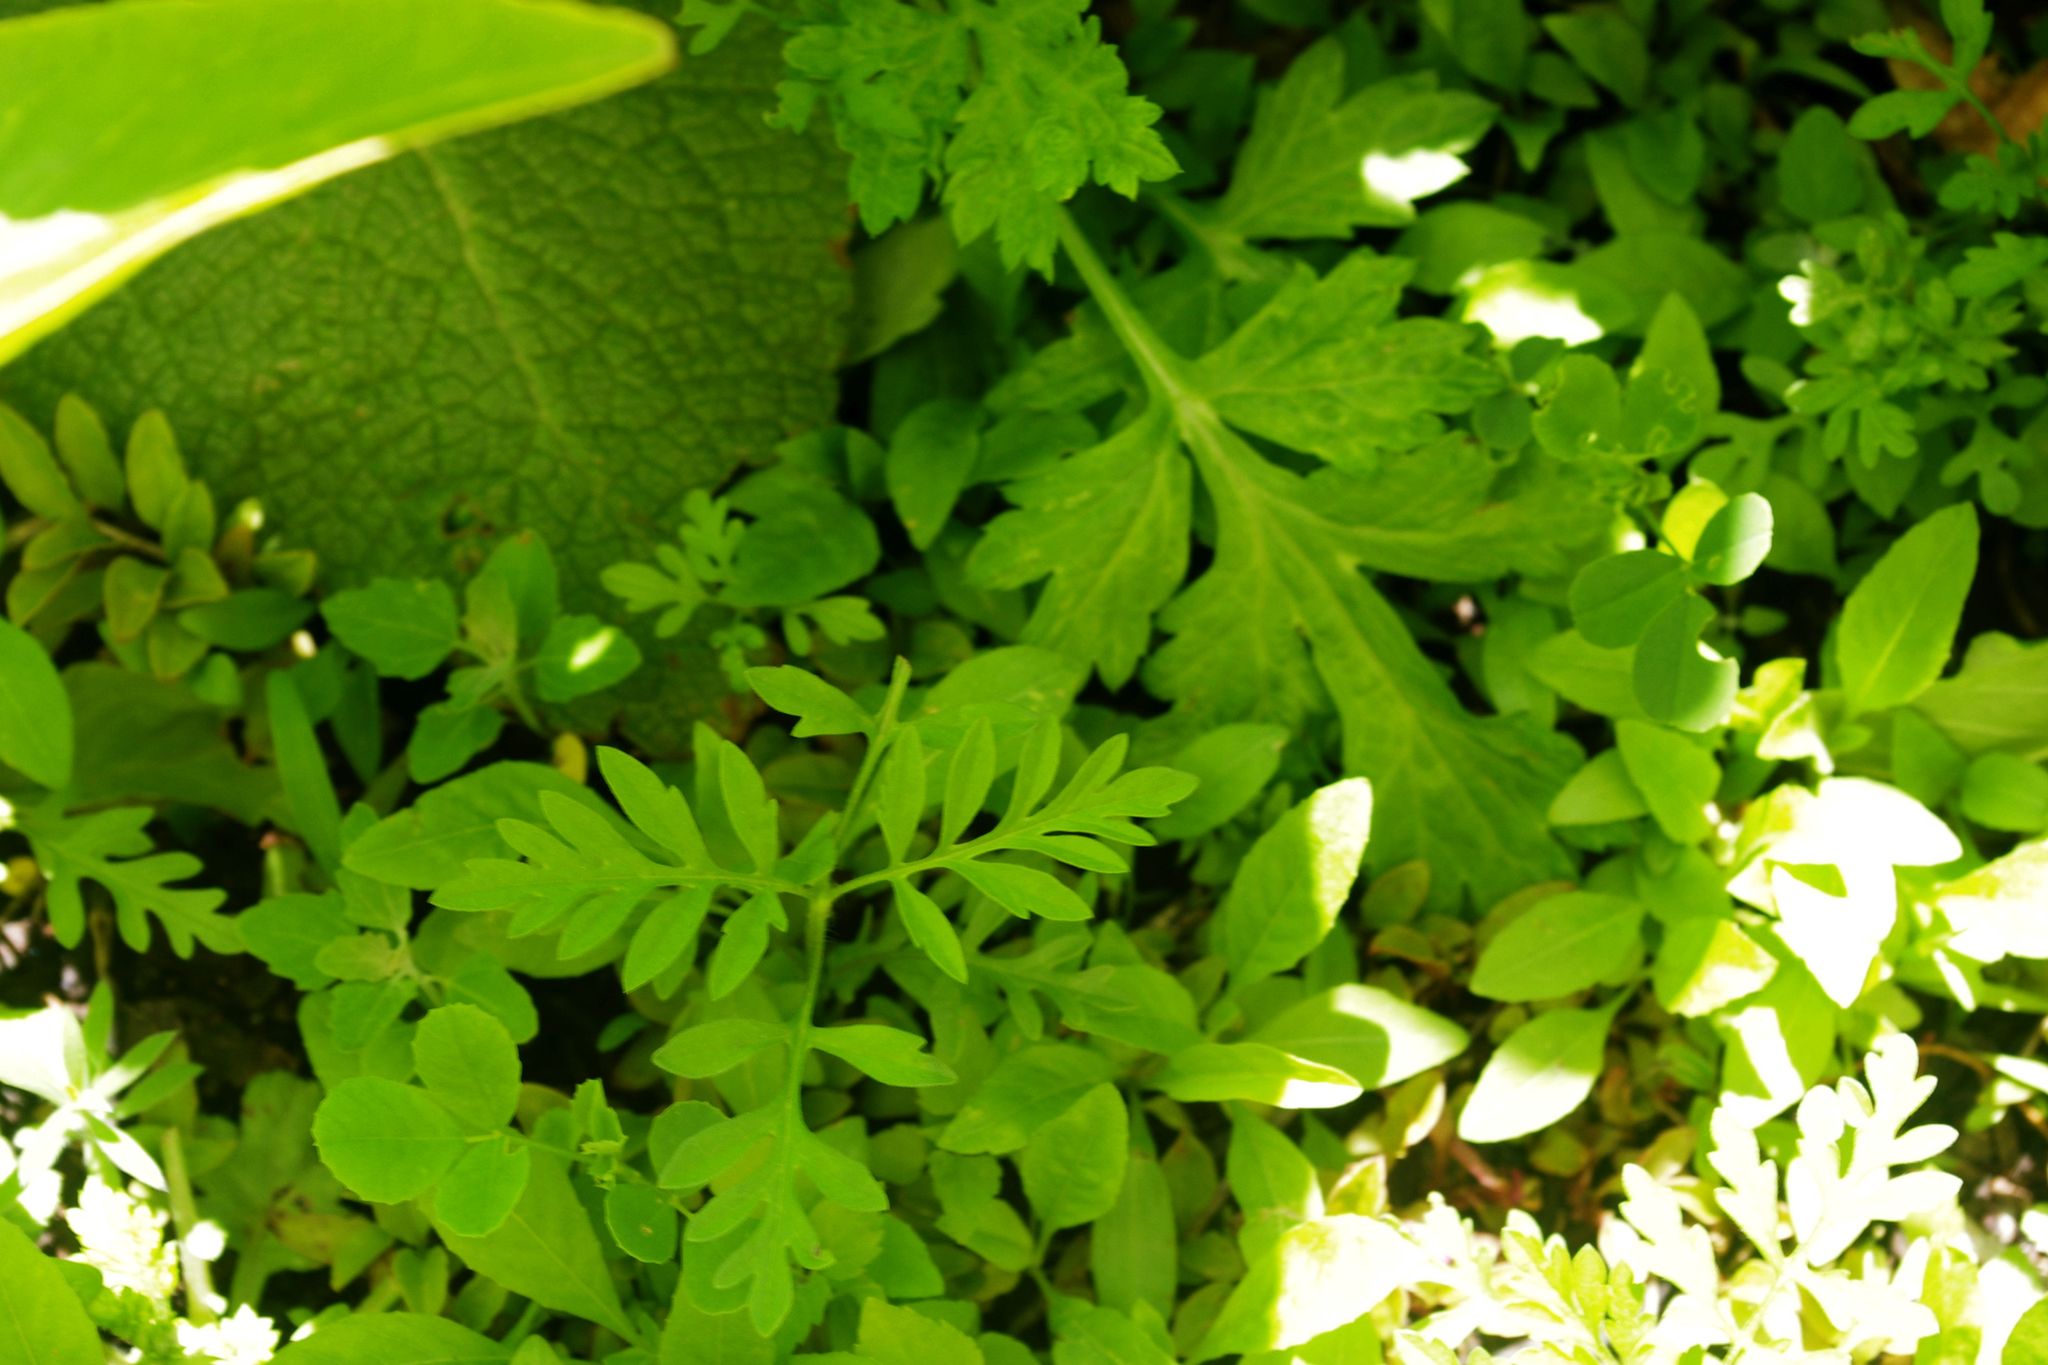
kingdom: Plantae
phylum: Tracheophyta
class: Magnoliopsida
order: Asterales
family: Asteraceae
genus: Ambrosia
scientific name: Ambrosia artemisiifolia
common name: Annual ragweed
